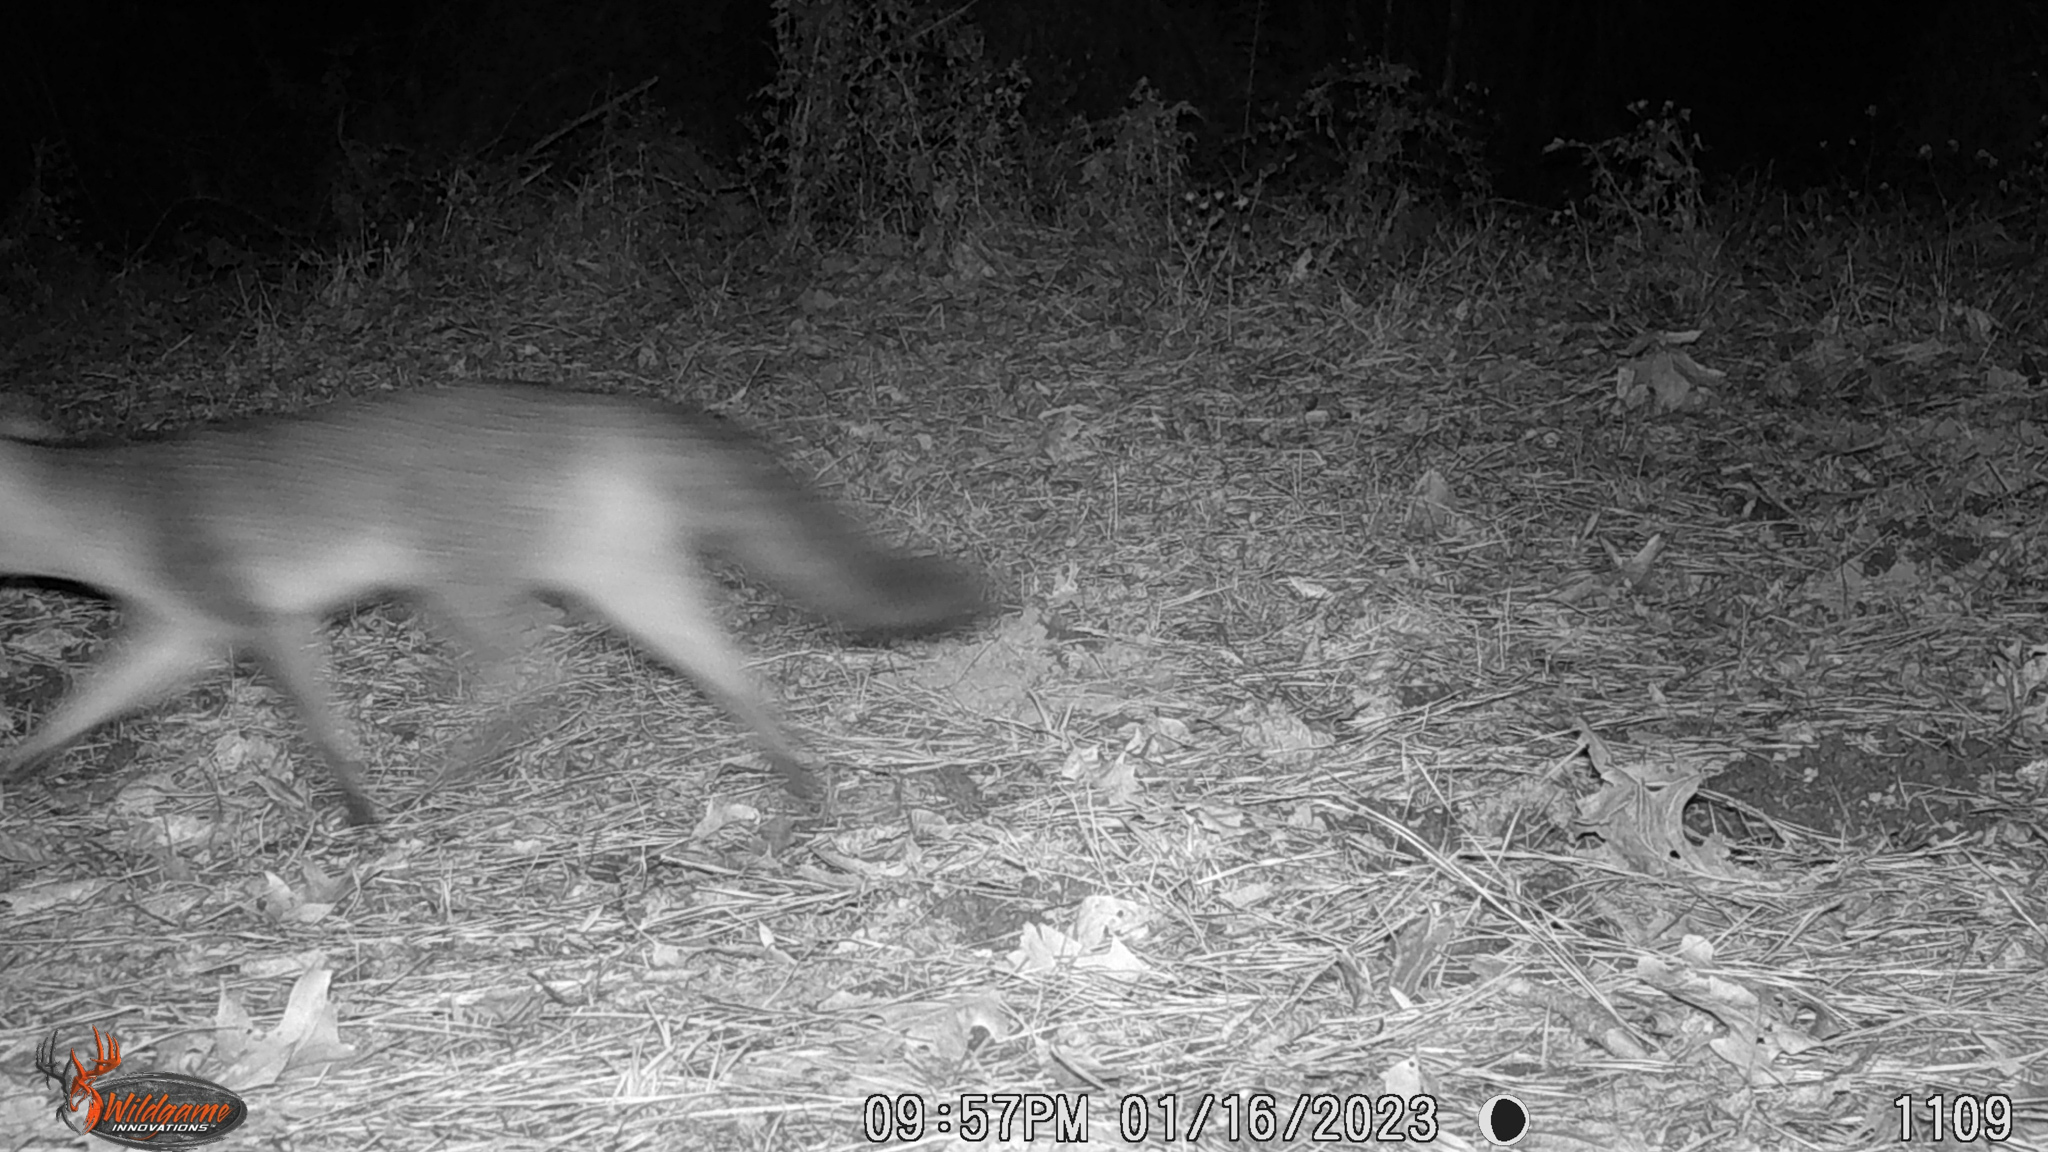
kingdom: Animalia
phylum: Chordata
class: Mammalia
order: Carnivora
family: Canidae
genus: Urocyon
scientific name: Urocyon cinereoargenteus
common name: Gray fox
